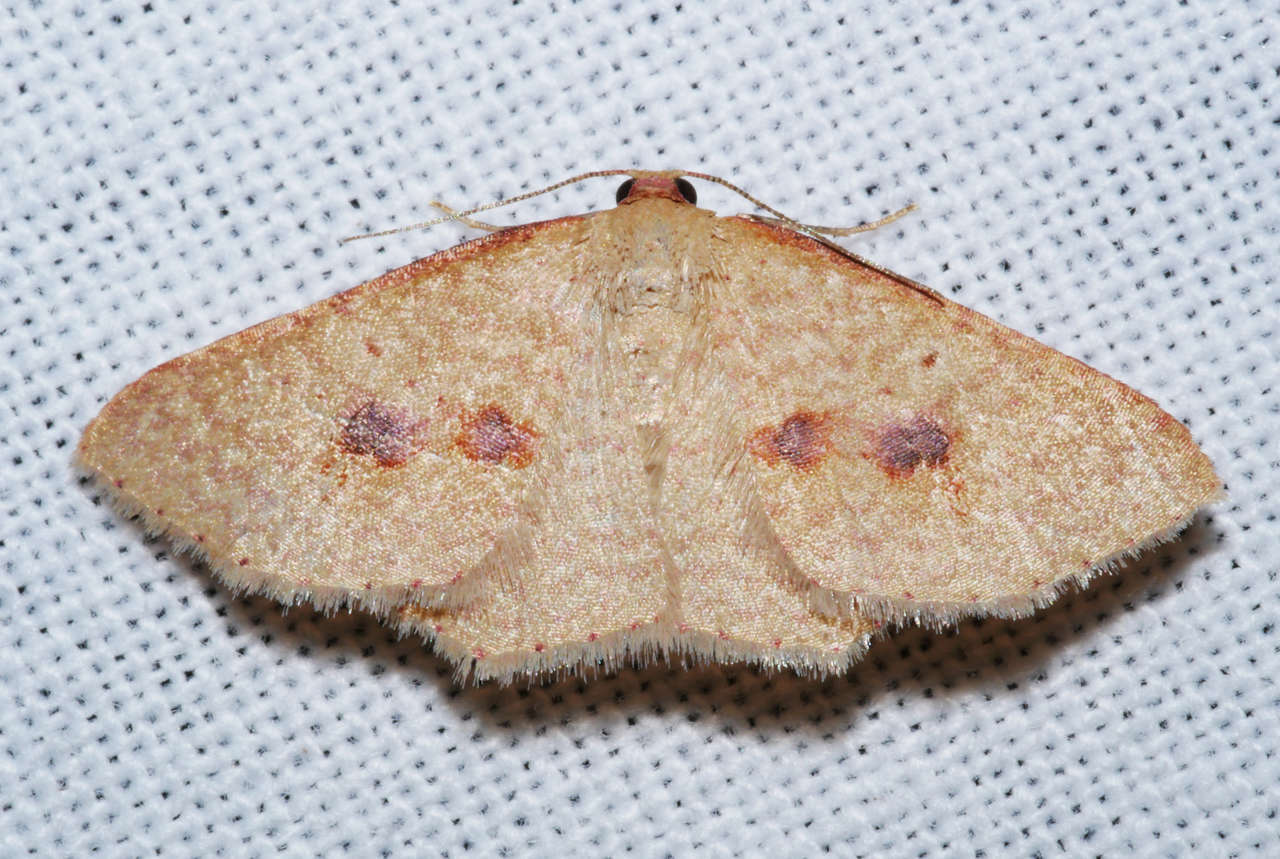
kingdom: Animalia
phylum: Arthropoda
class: Insecta
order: Lepidoptera
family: Geometridae
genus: Epicyme
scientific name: Epicyme rubropunctaria
